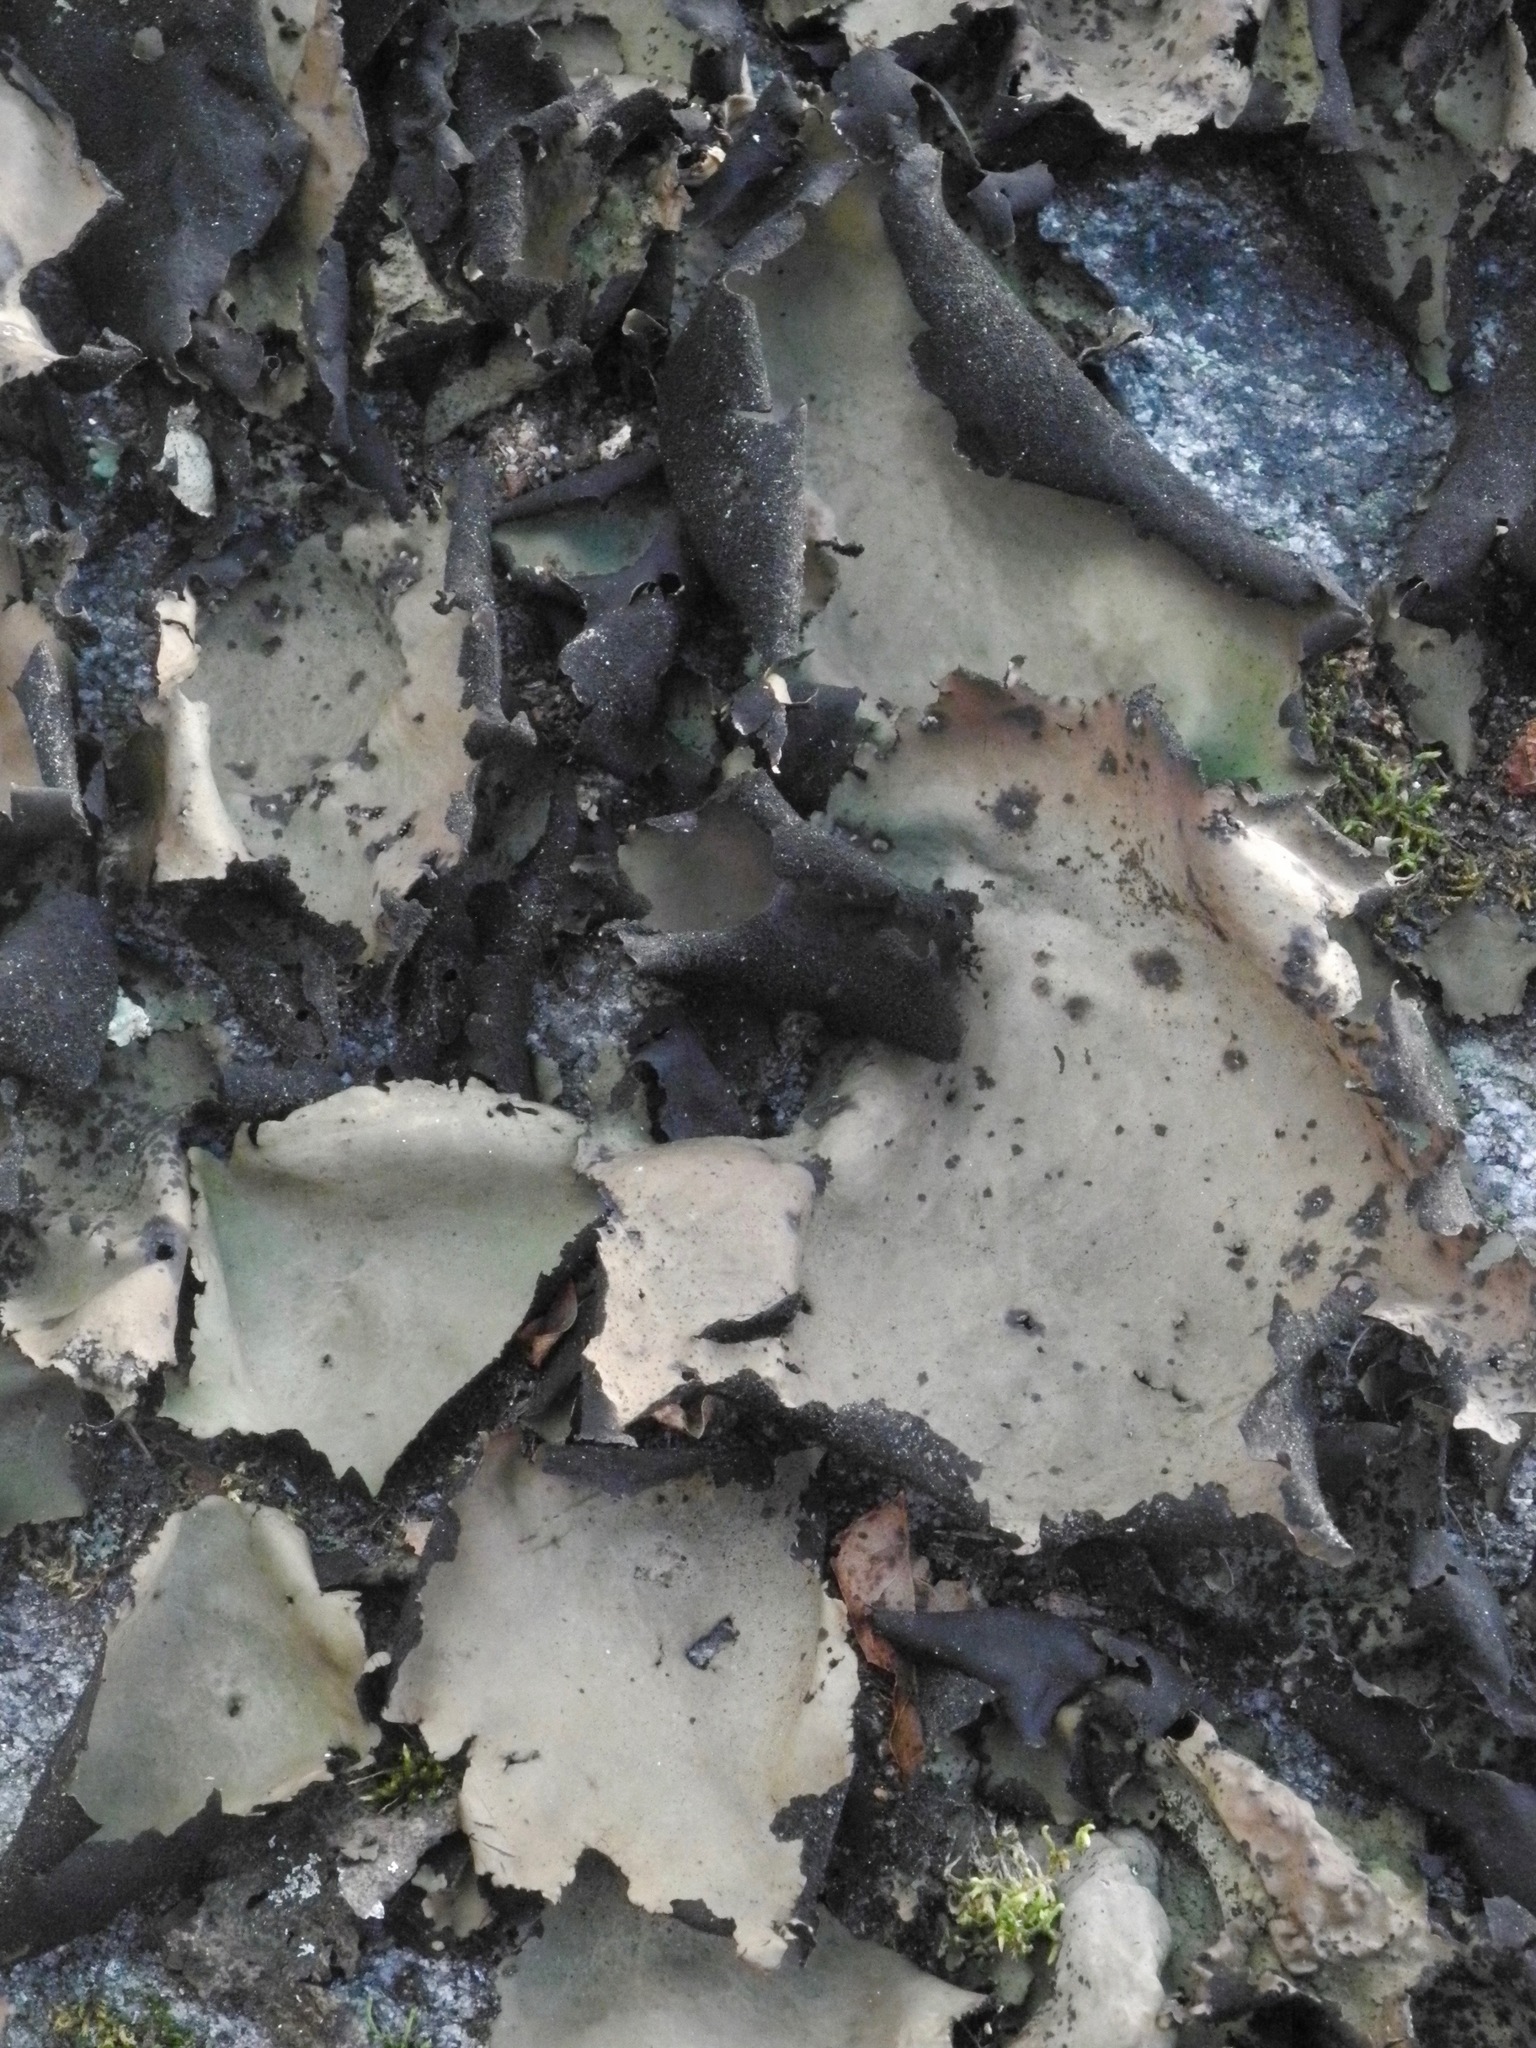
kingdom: Fungi
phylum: Ascomycota
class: Lecanoromycetes
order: Umbilicariales
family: Umbilicariaceae
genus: Umbilicaria
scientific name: Umbilicaria mammulata
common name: Smooth rock tripe
